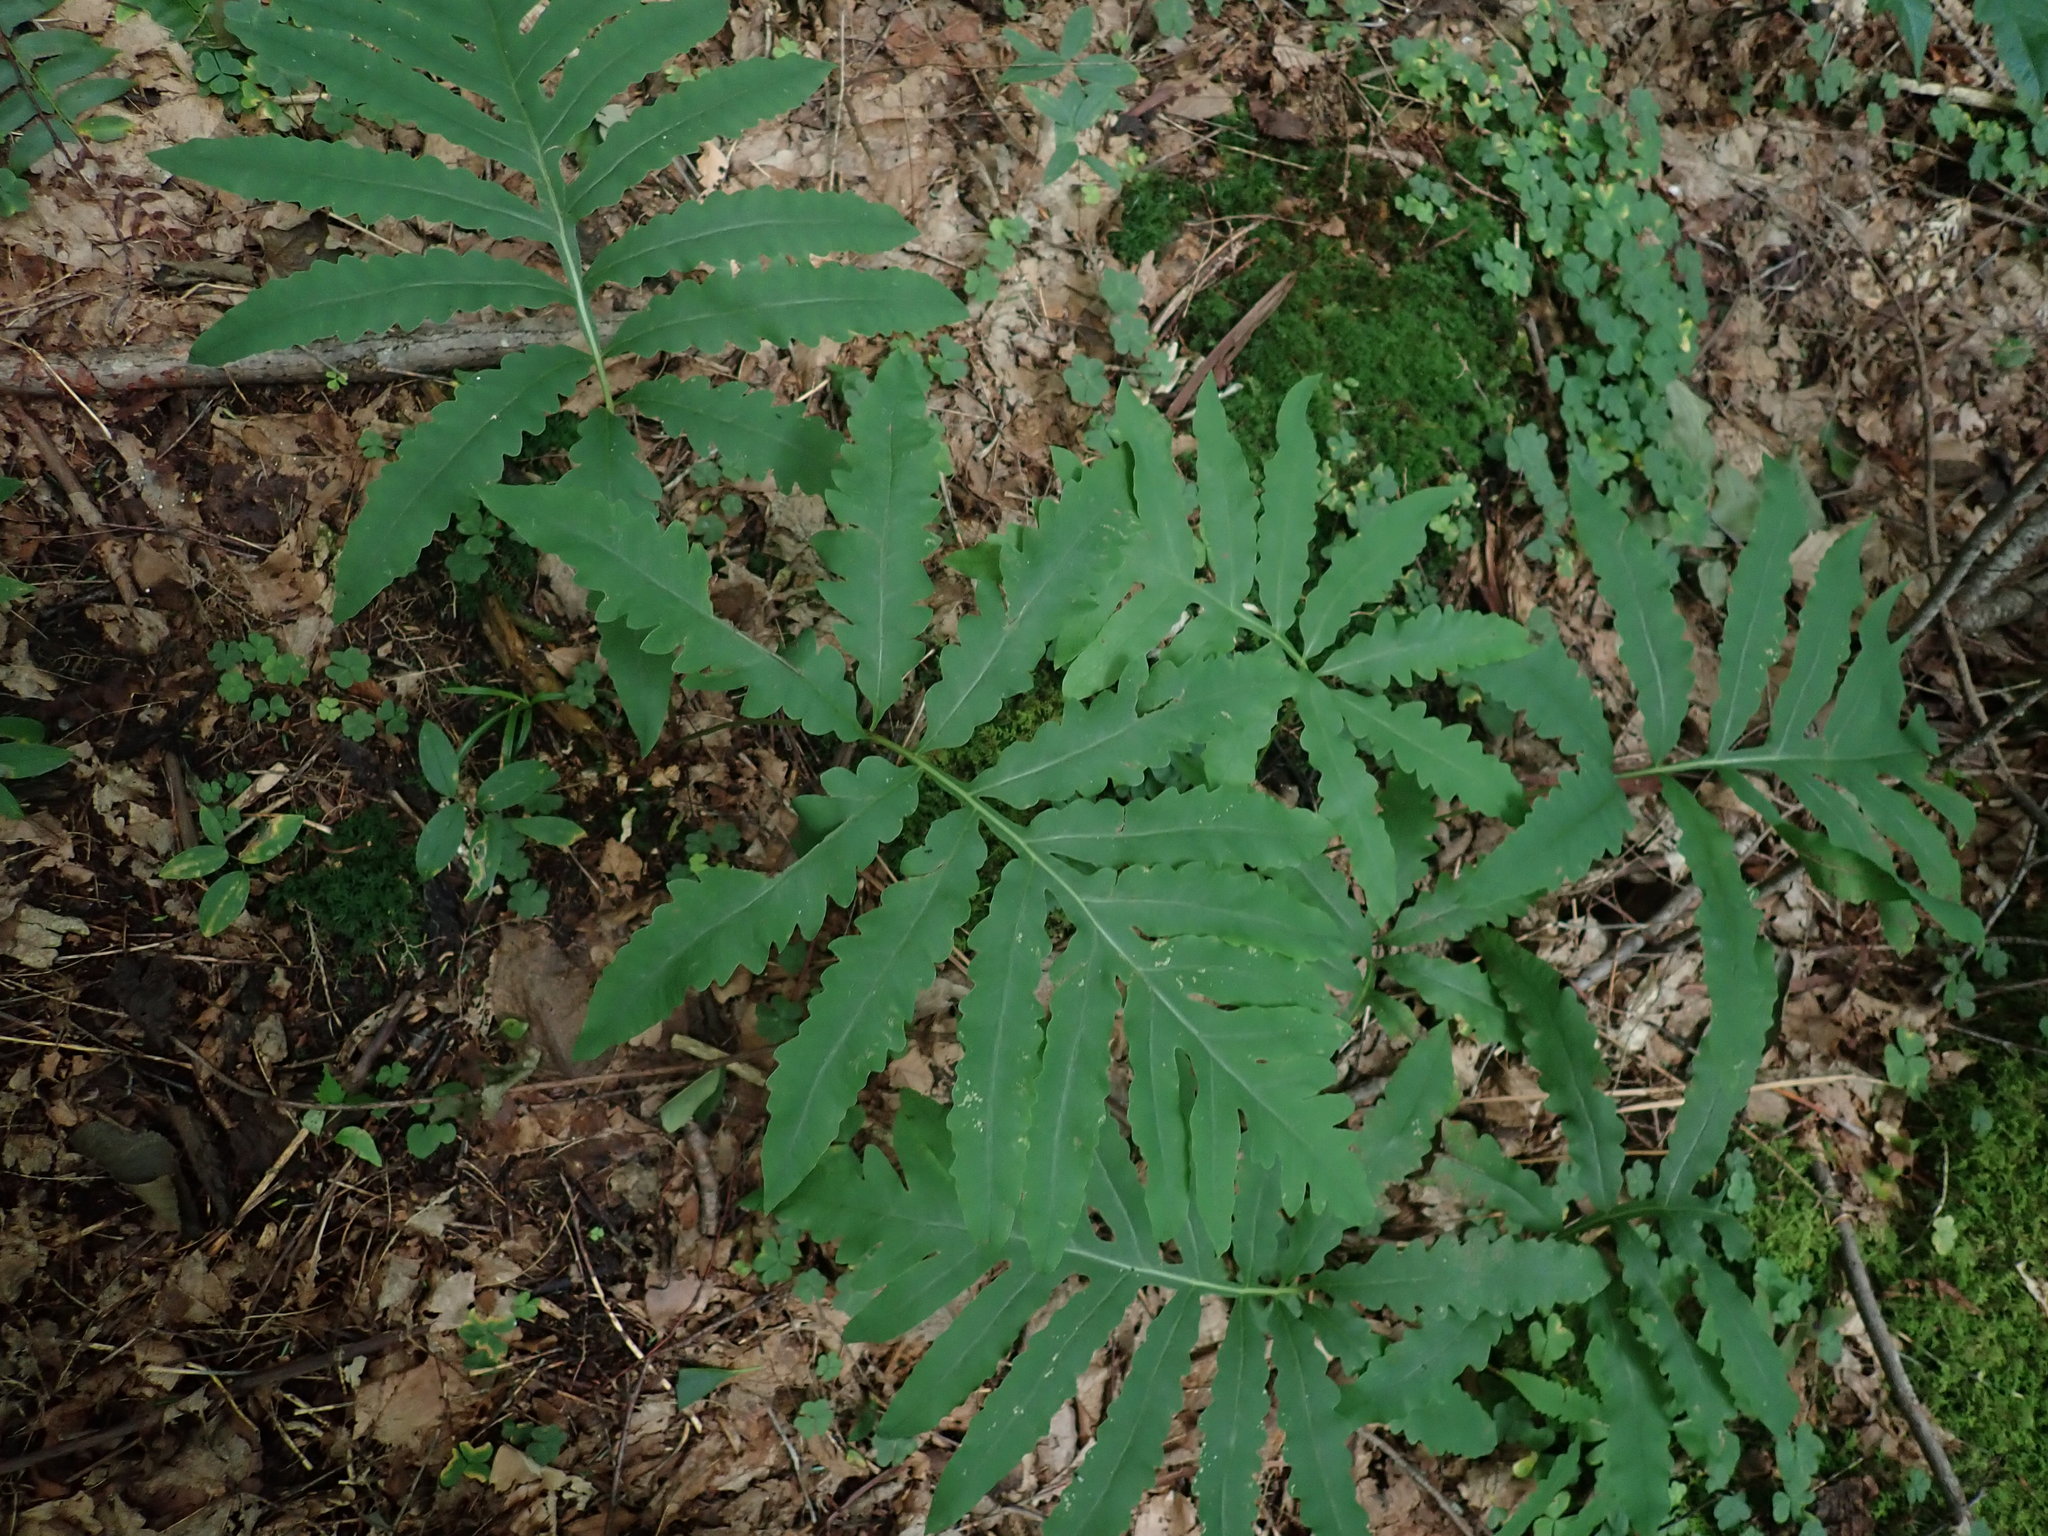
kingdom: Plantae
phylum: Tracheophyta
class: Polypodiopsida
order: Polypodiales
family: Onocleaceae
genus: Onoclea
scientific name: Onoclea sensibilis
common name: Sensitive fern
